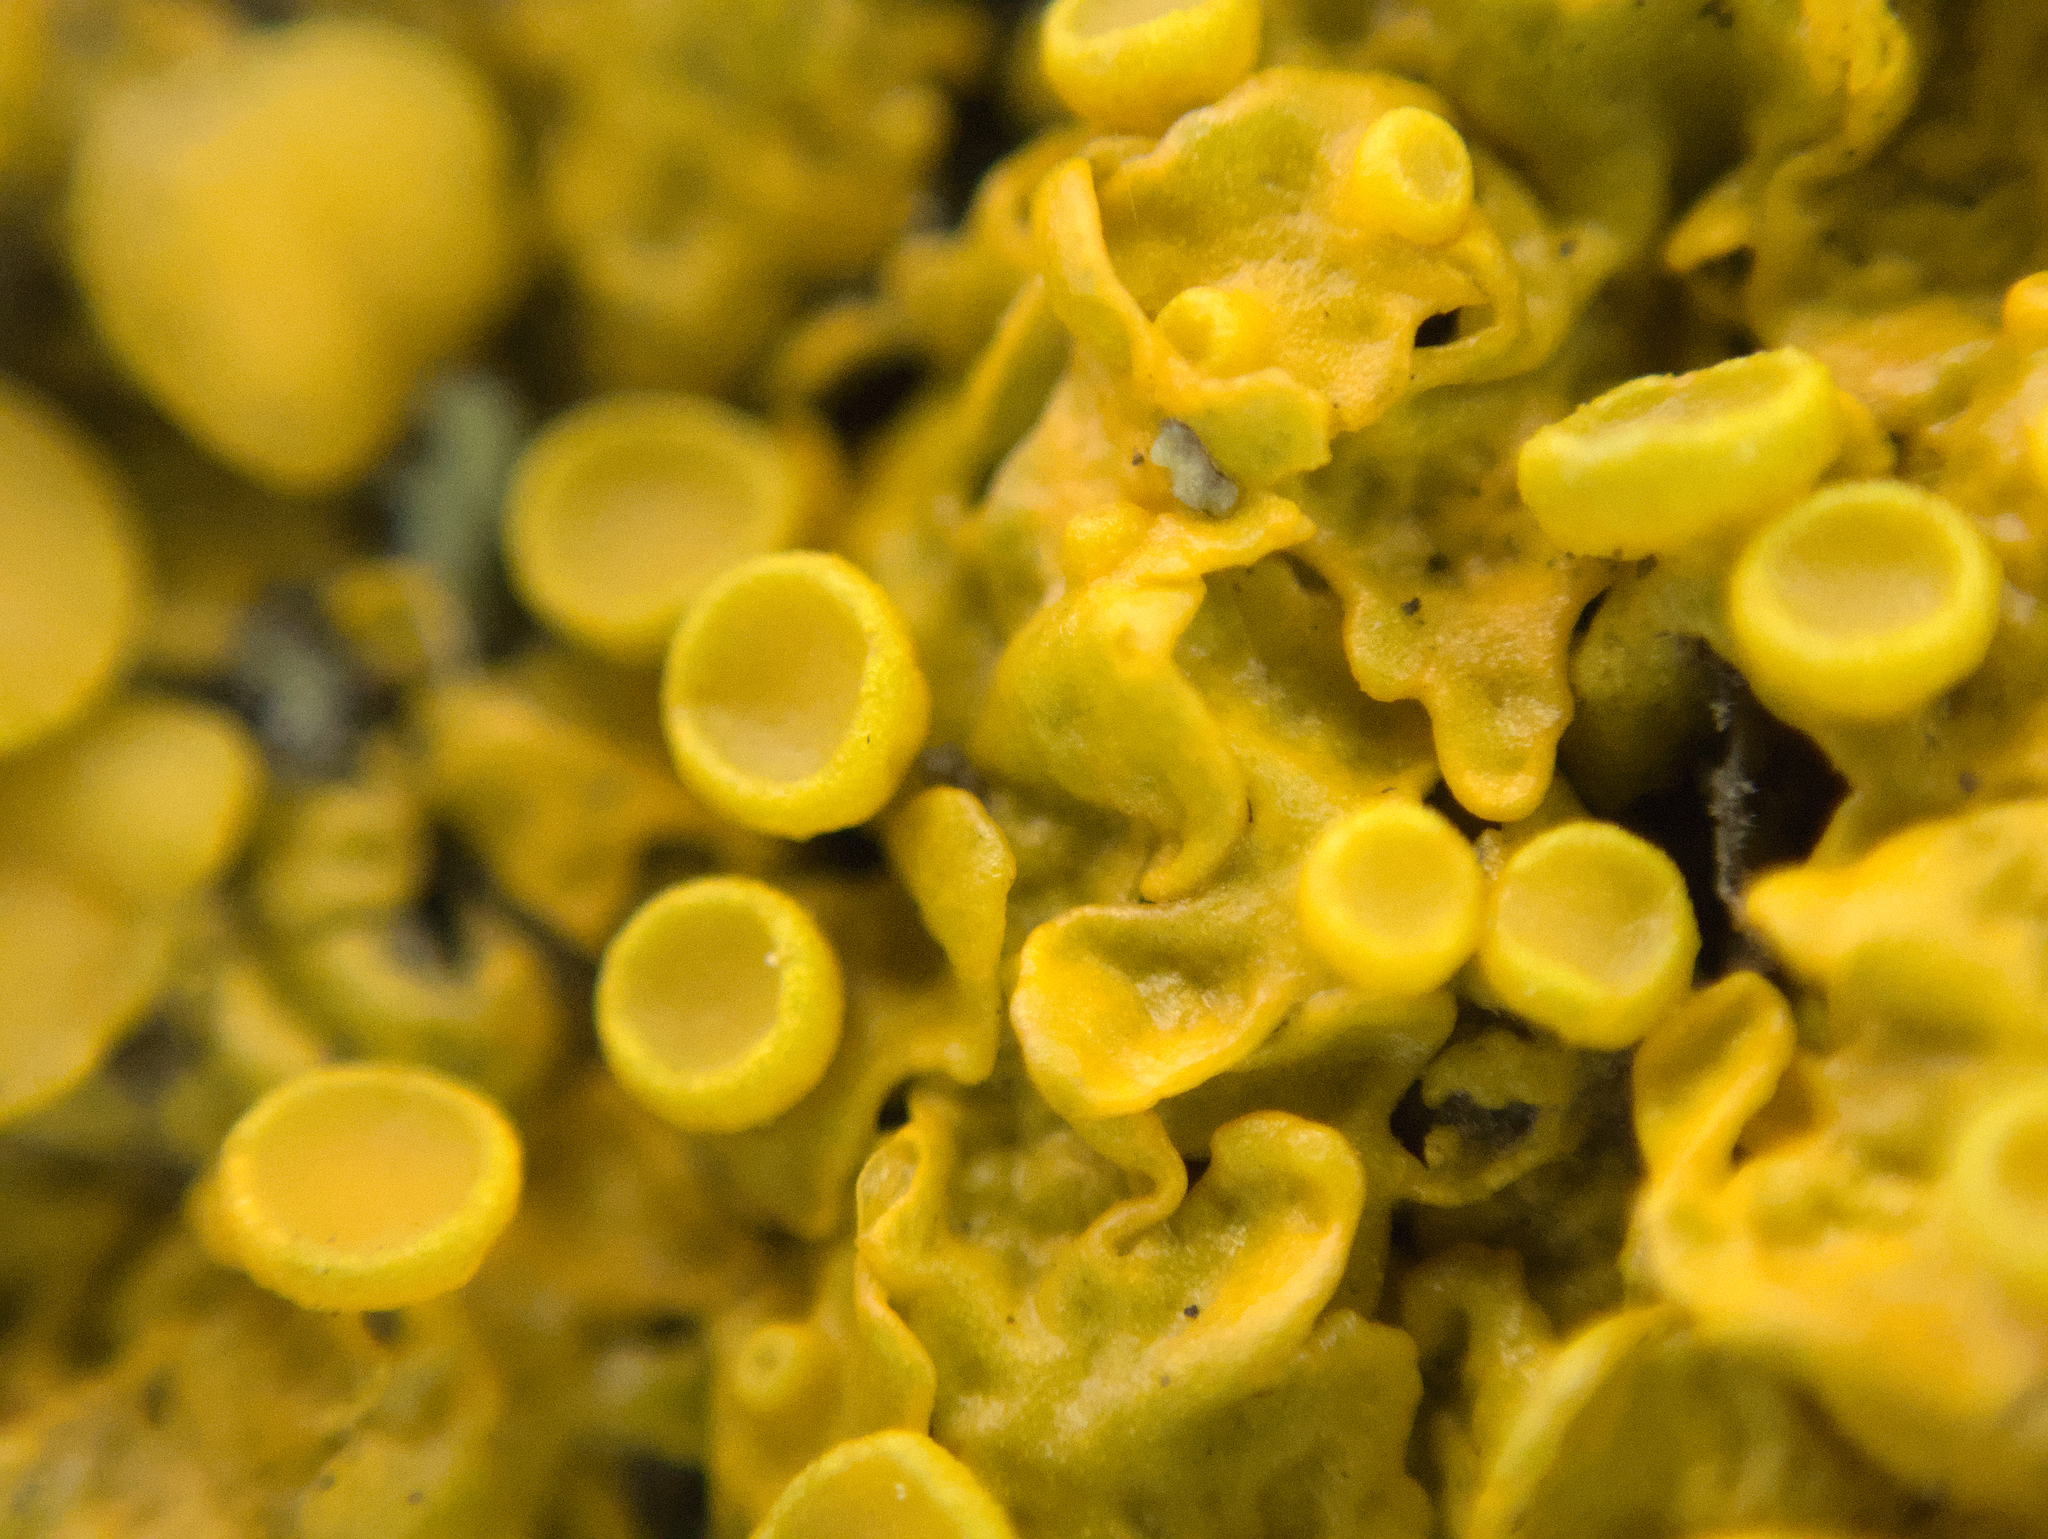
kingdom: Fungi
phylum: Ascomycota
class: Lecanoromycetes
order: Teloschistales
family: Teloschistaceae
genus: Xanthoria
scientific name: Xanthoria parietina
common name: Common orange lichen
